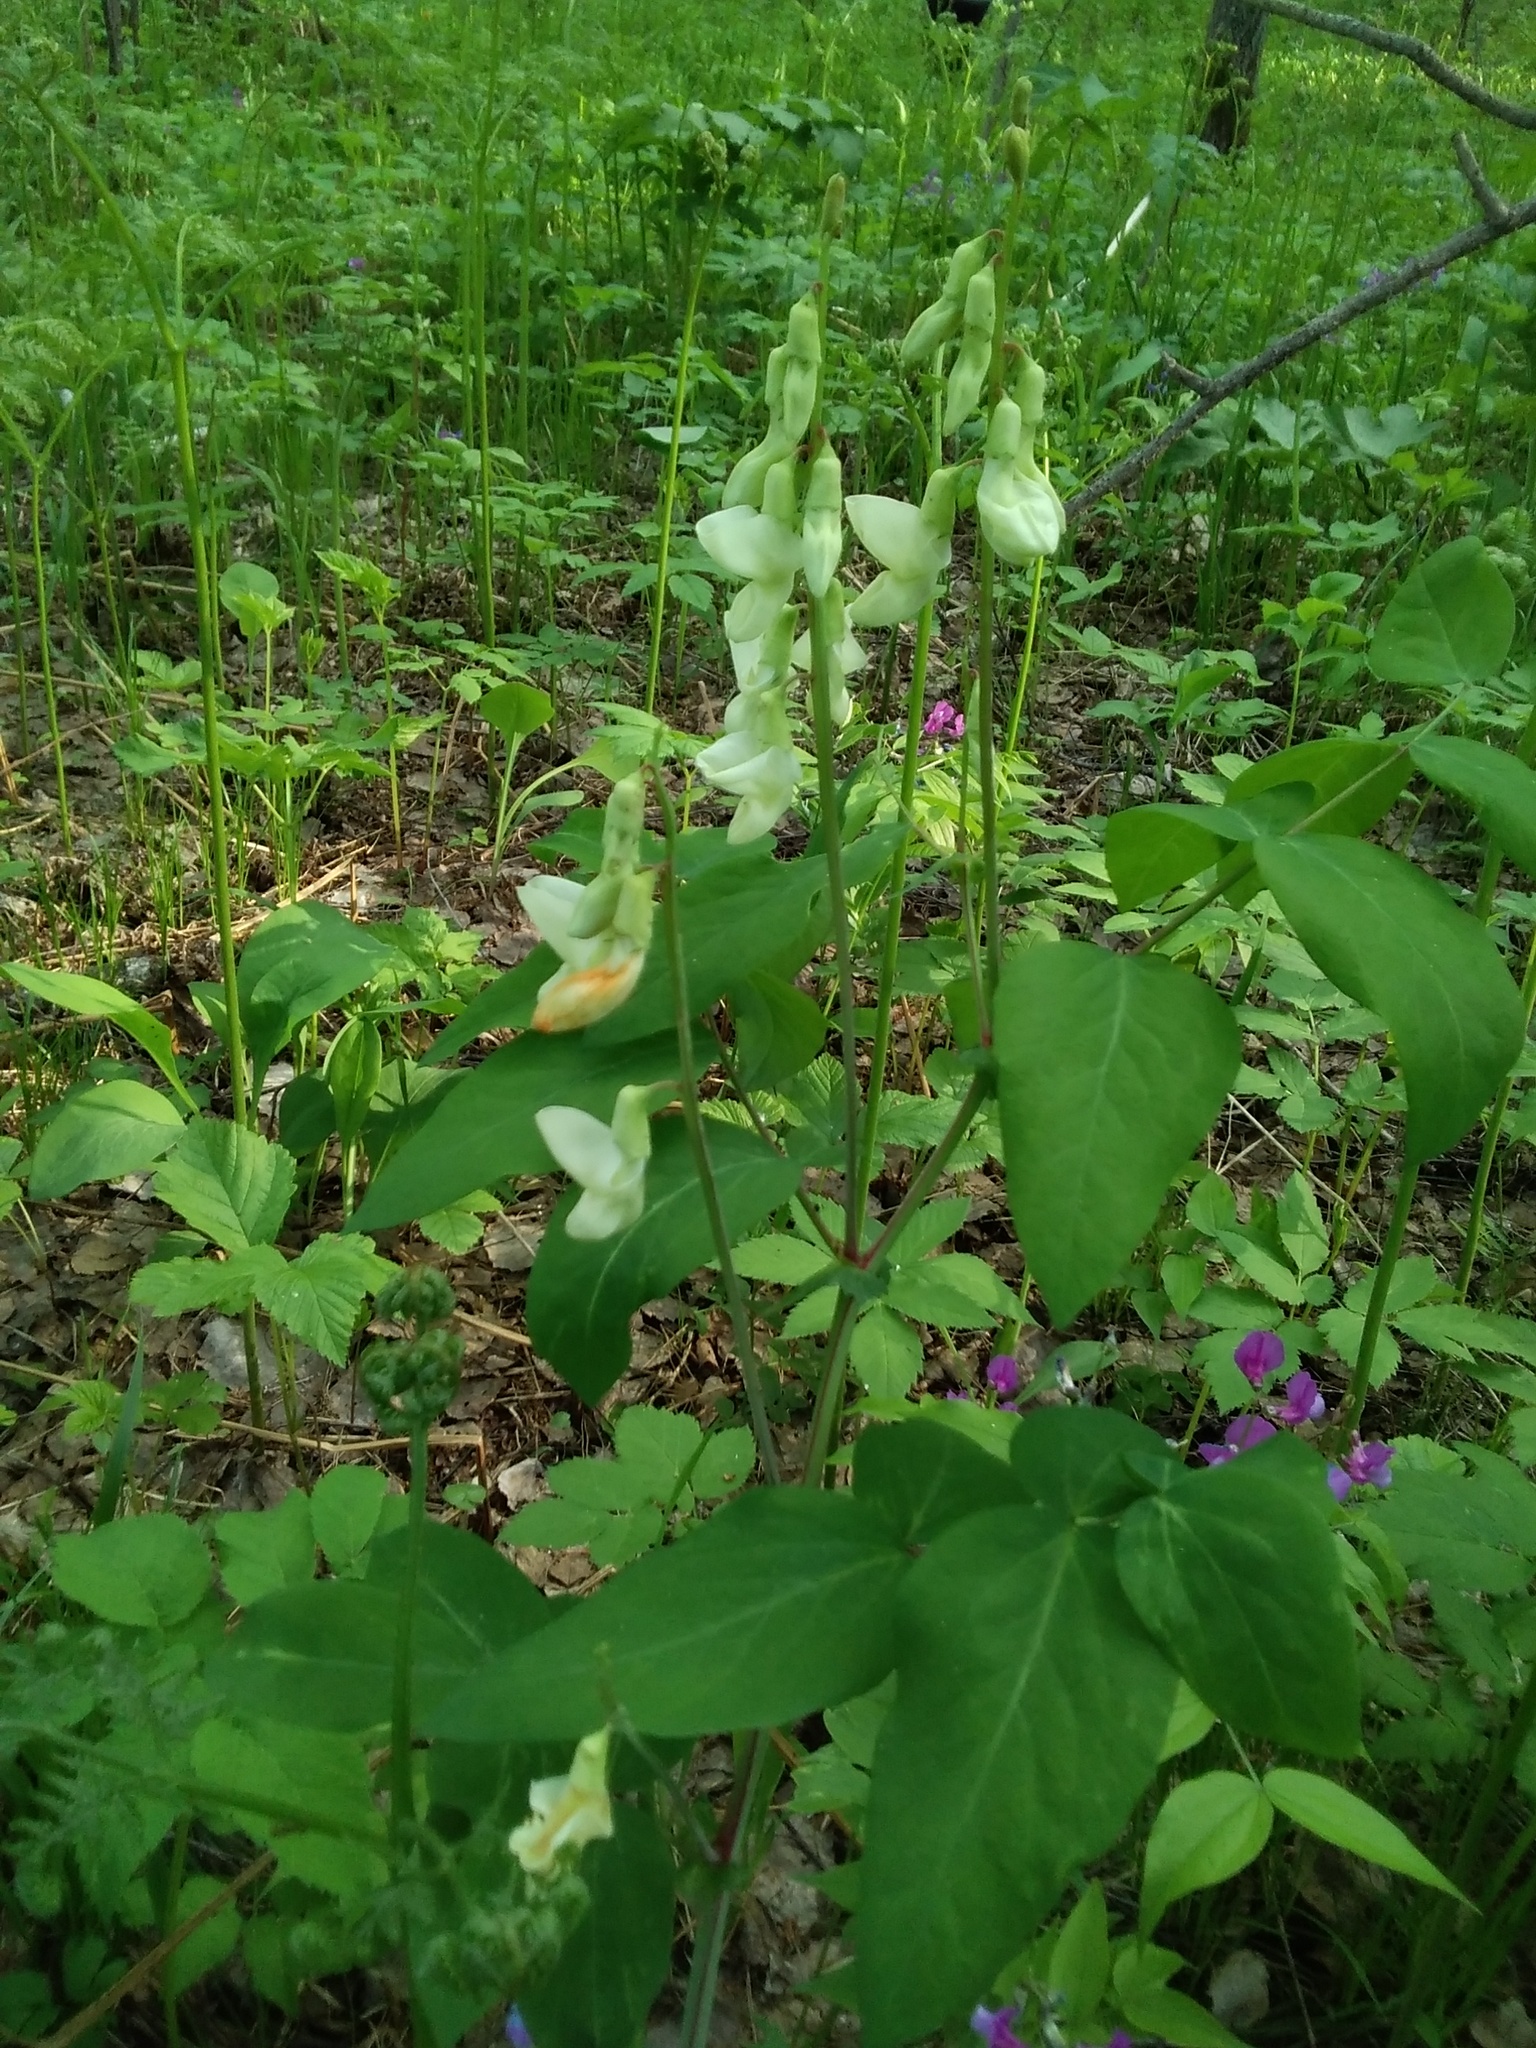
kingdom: Plantae
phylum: Tracheophyta
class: Magnoliopsida
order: Fabales
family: Fabaceae
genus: Lathyrus
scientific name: Lathyrus gmelinii
